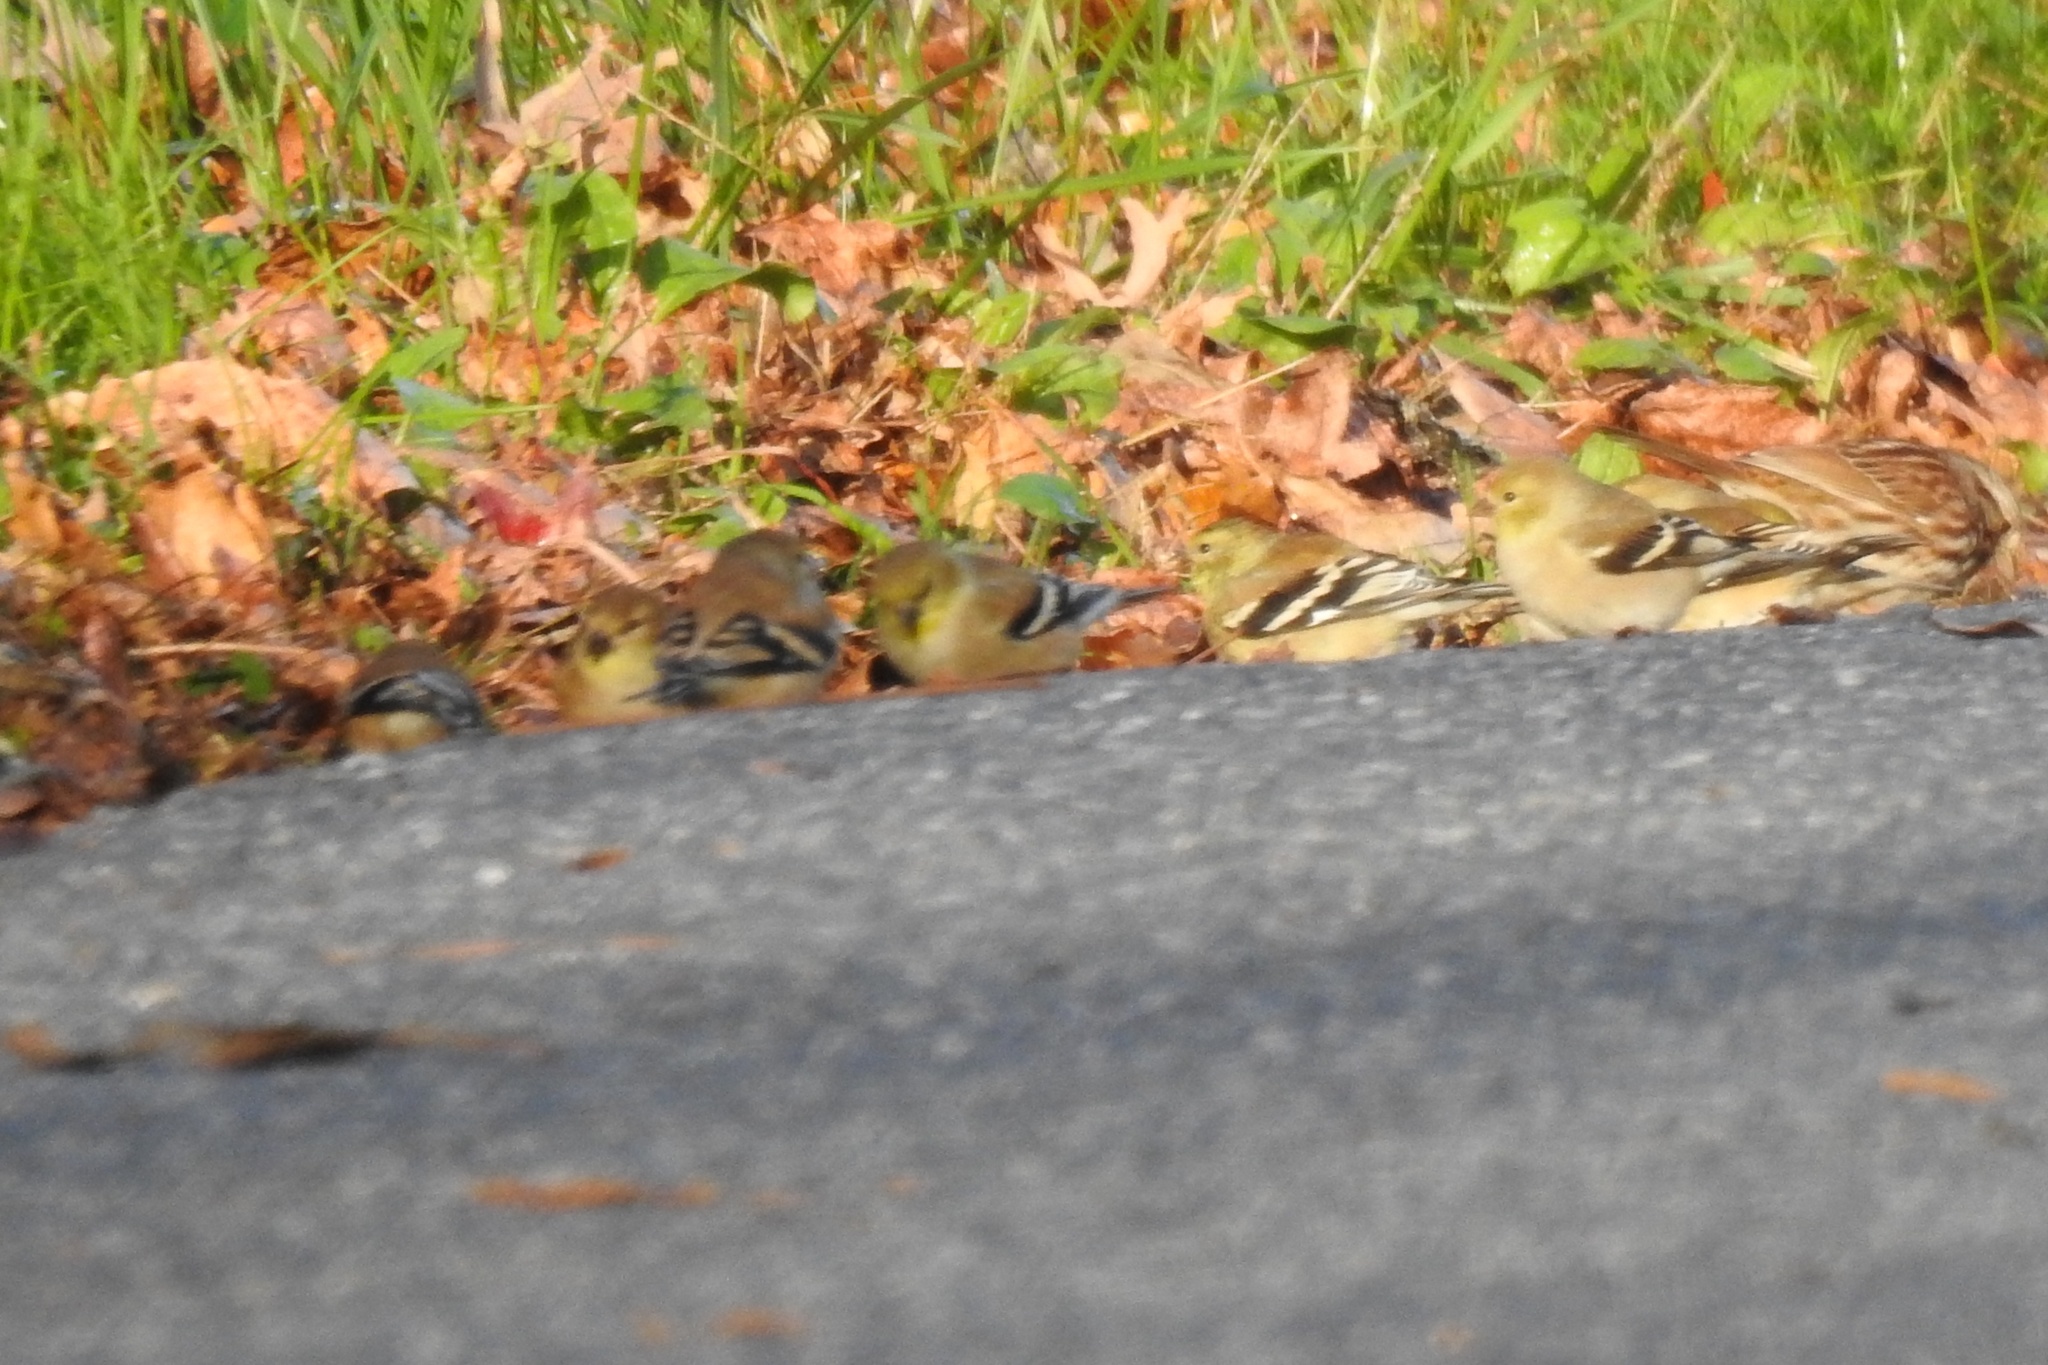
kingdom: Animalia
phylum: Chordata
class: Aves
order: Passeriformes
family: Fringillidae
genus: Spinus
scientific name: Spinus tristis
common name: American goldfinch
